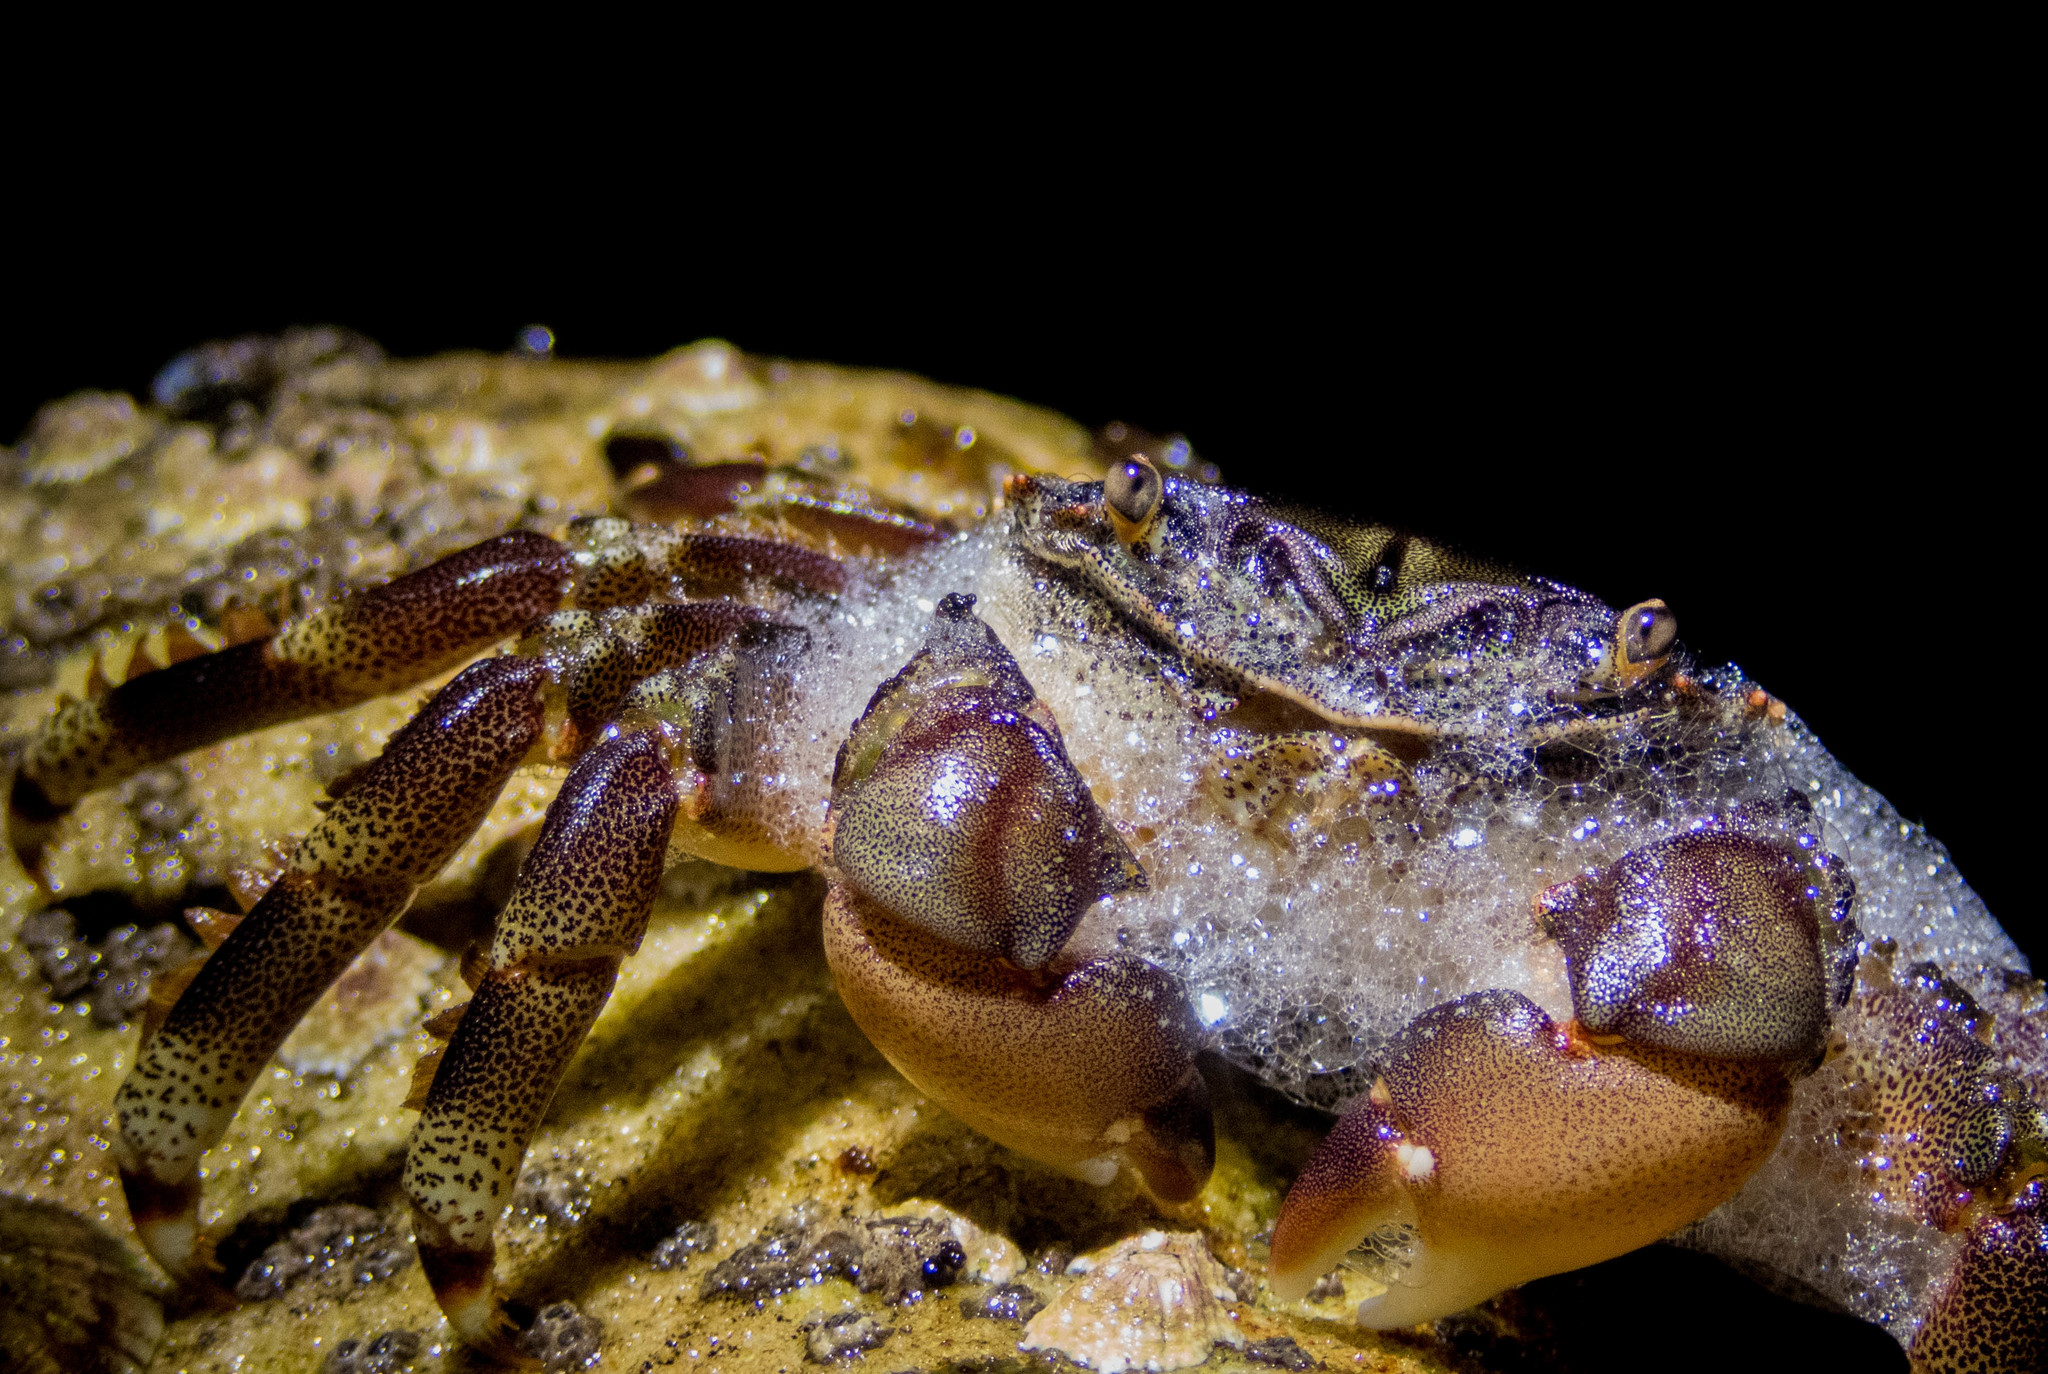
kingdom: Animalia
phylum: Arthropoda
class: Malacostraca
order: Decapoda
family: Plagusiidae
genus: Davusia
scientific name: Davusia glabra
